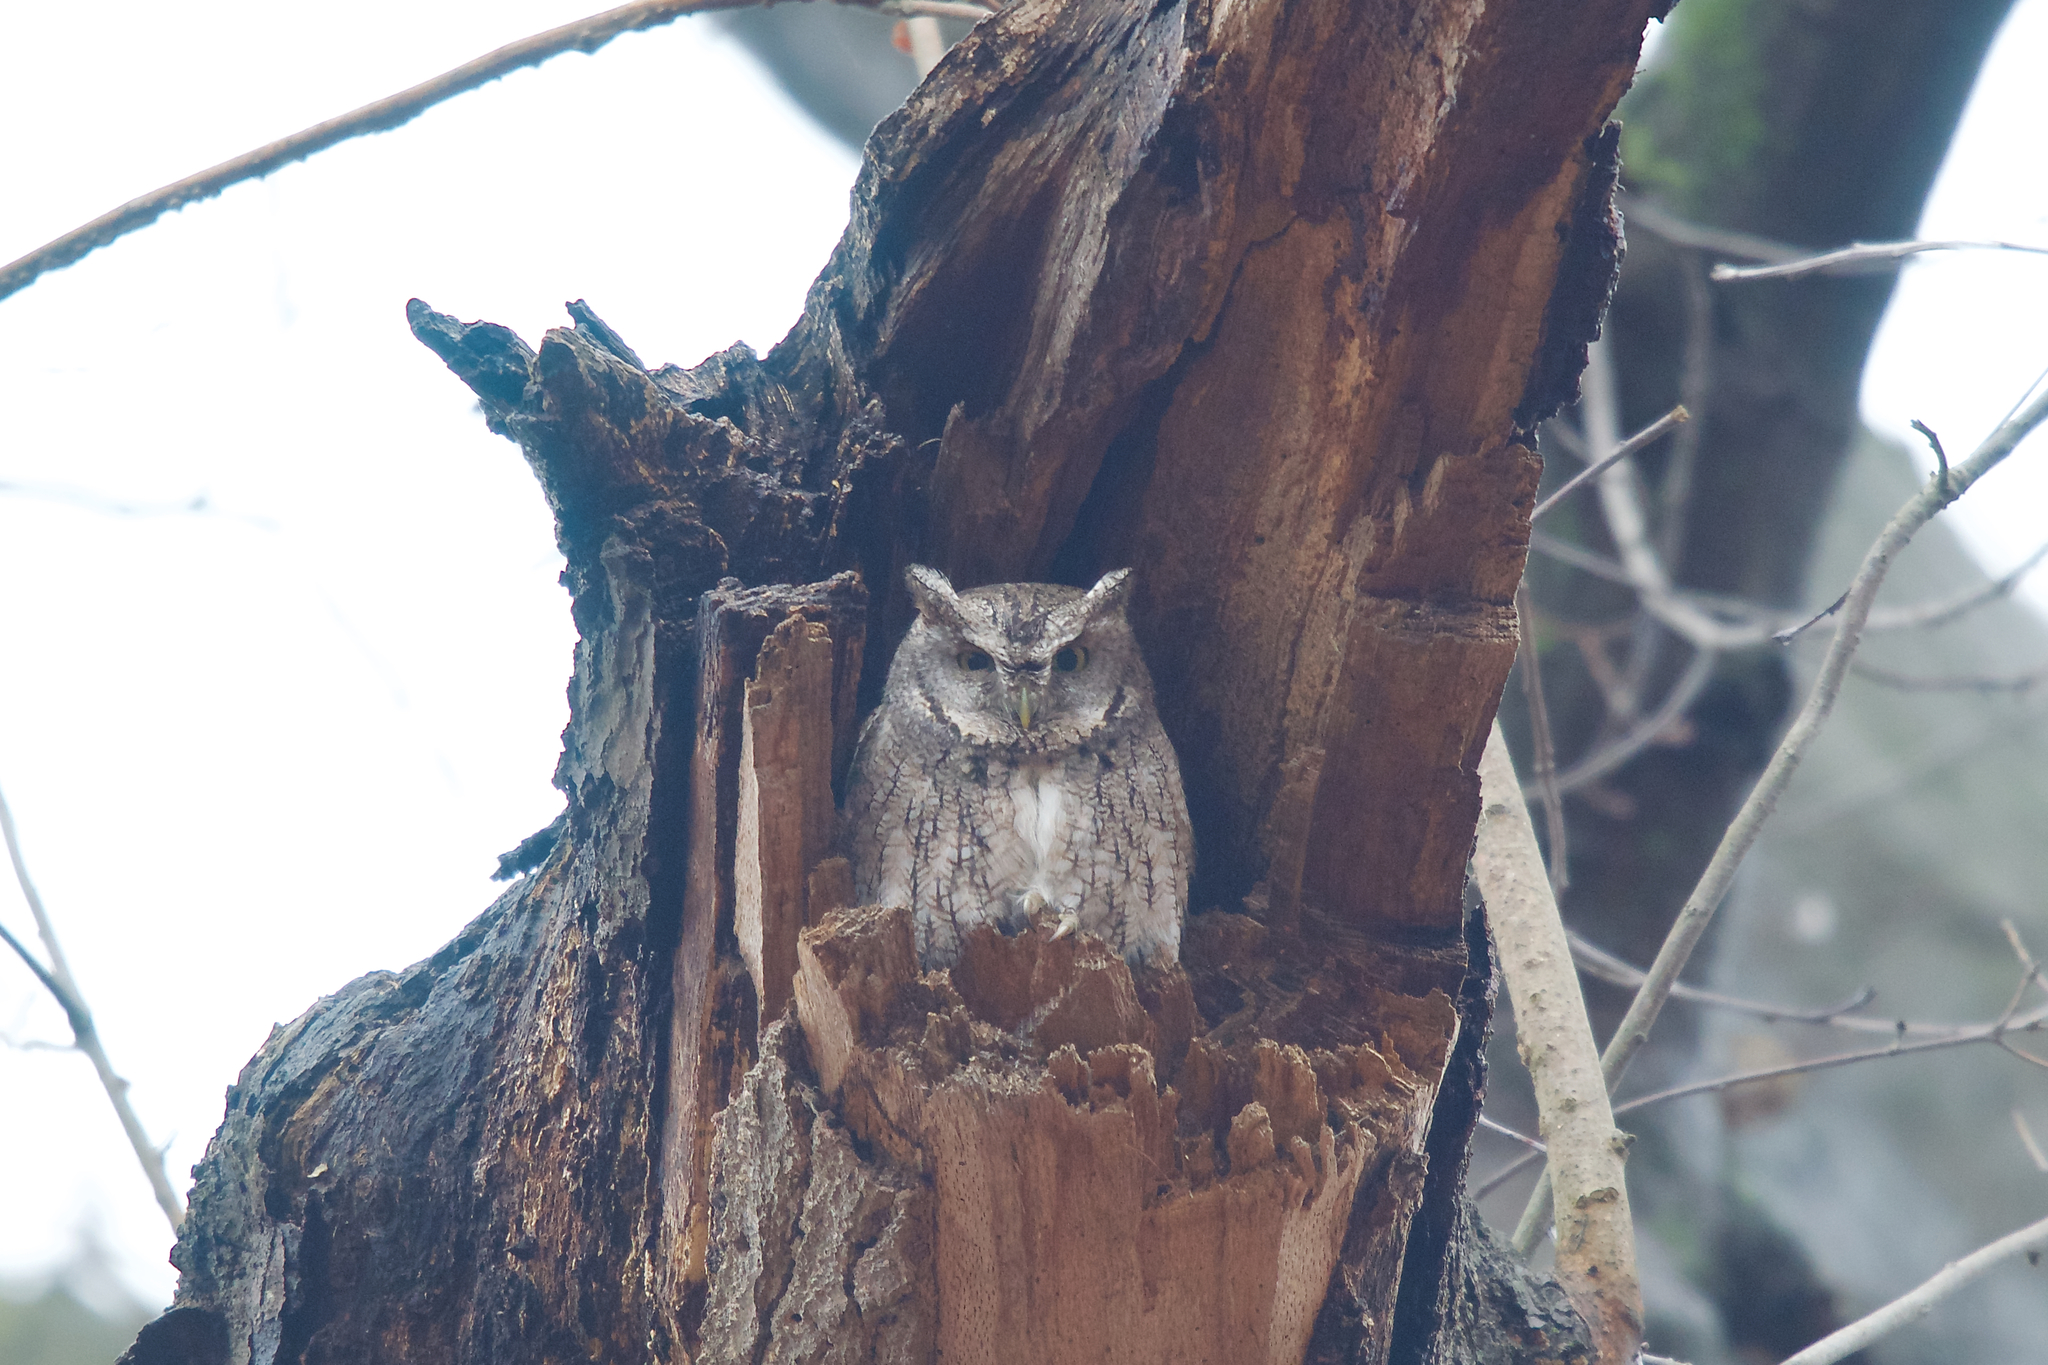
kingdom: Animalia
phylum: Chordata
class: Aves
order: Strigiformes
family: Strigidae
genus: Megascops
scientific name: Megascops asio
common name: Eastern screech-owl
